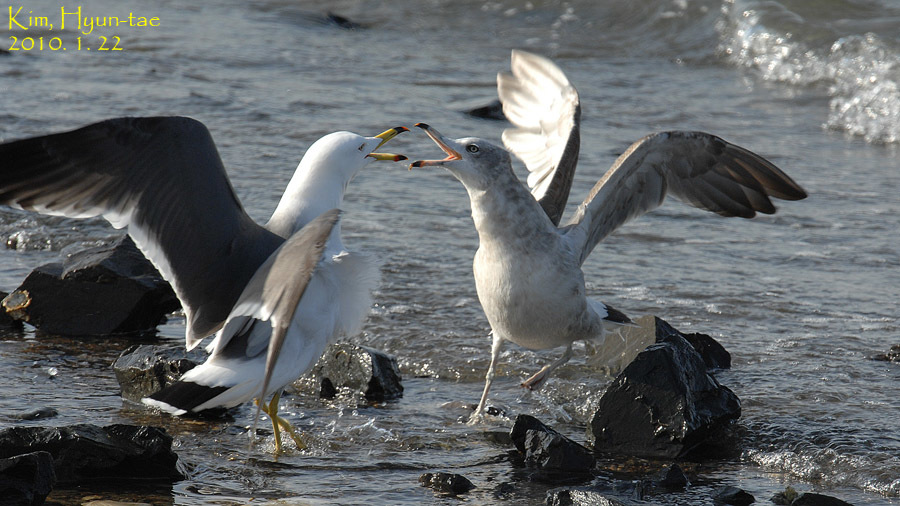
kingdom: Animalia
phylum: Chordata
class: Aves
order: Charadriiformes
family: Laridae
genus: Larus
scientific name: Larus crassirostris
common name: Black-tailed gull
